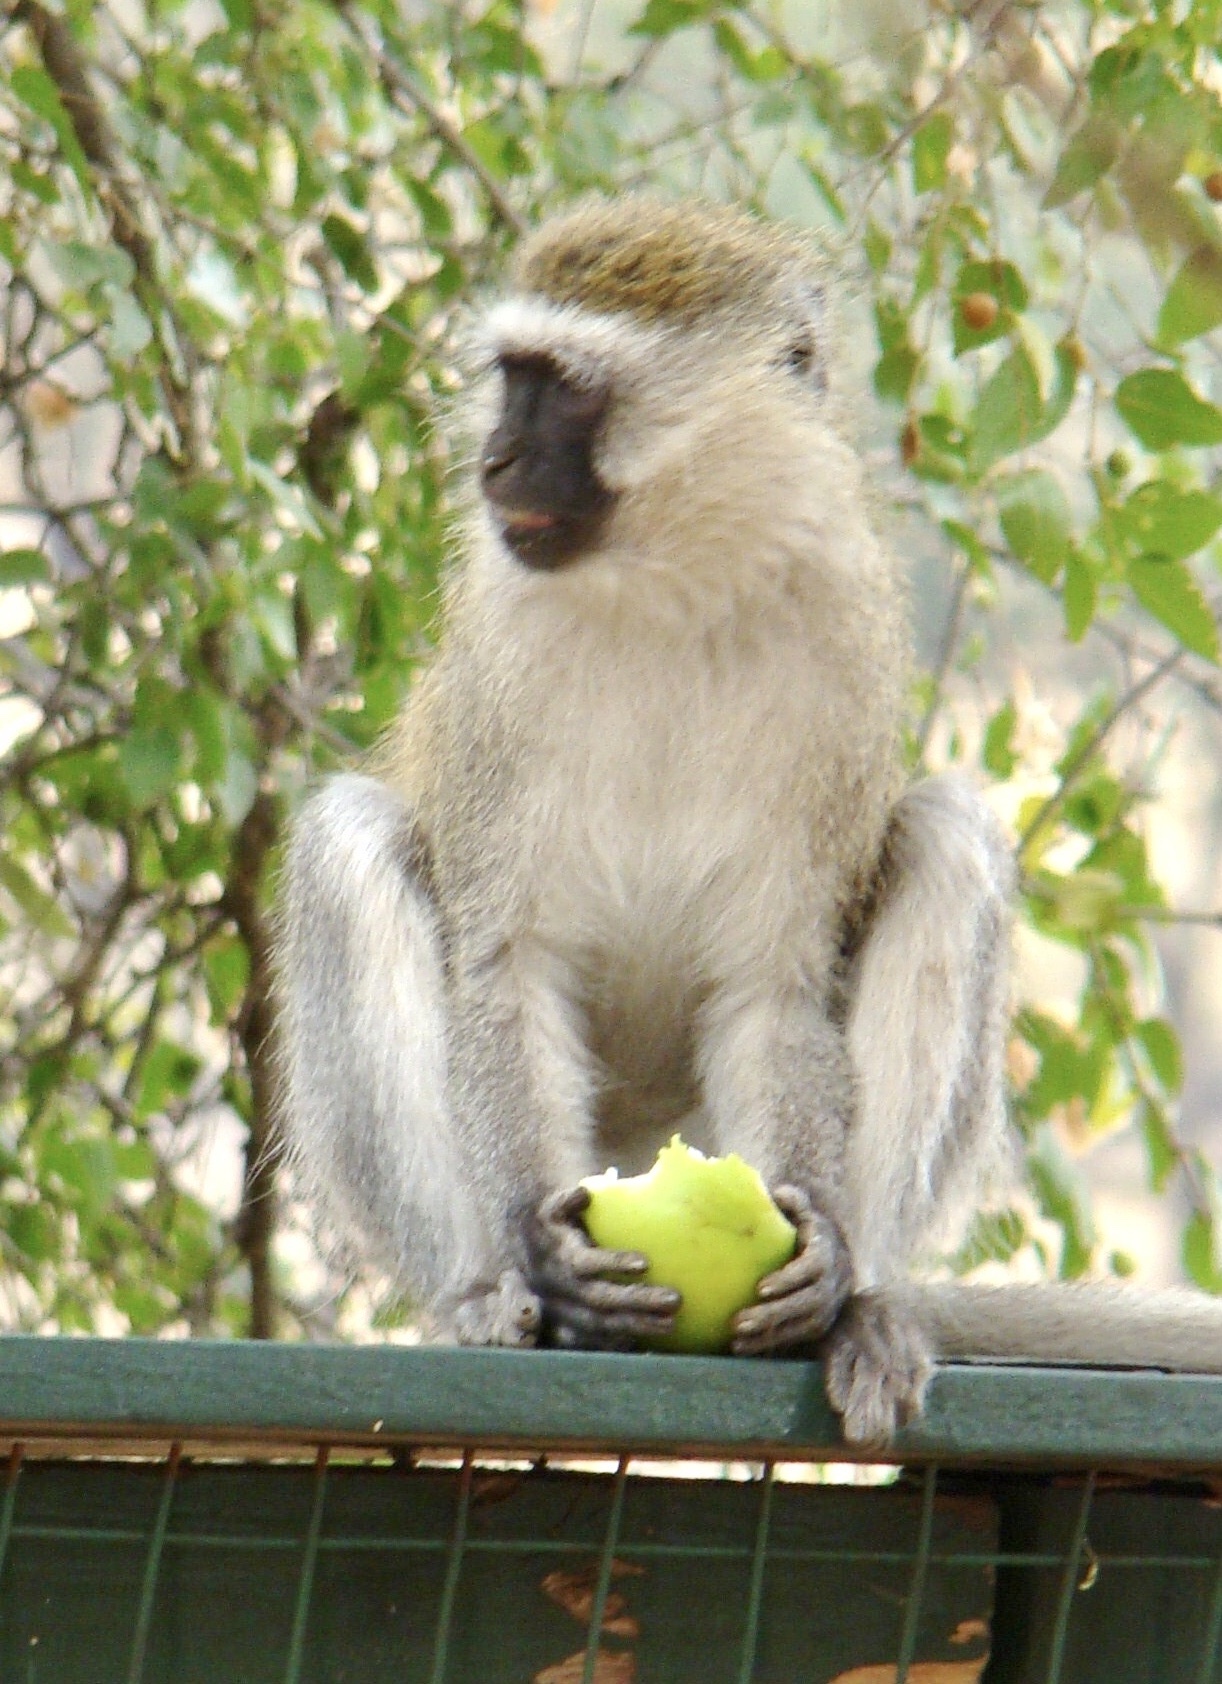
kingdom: Animalia
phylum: Chordata
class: Mammalia
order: Primates
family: Cercopithecidae
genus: Chlorocebus
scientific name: Chlorocebus pygerythrus
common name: Vervet monkey
